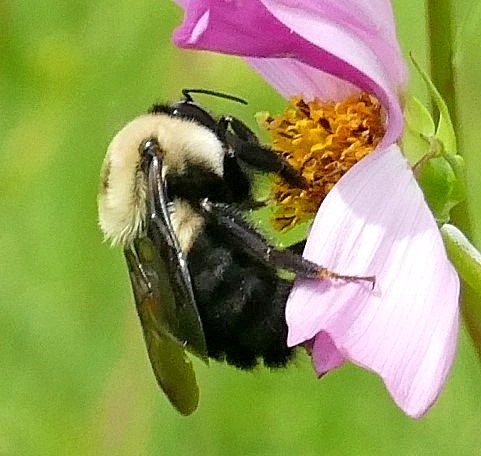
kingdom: Animalia
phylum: Arthropoda
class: Insecta
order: Hymenoptera
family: Apidae
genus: Bombus
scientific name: Bombus griseocollis
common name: Brown-belted bumble bee
